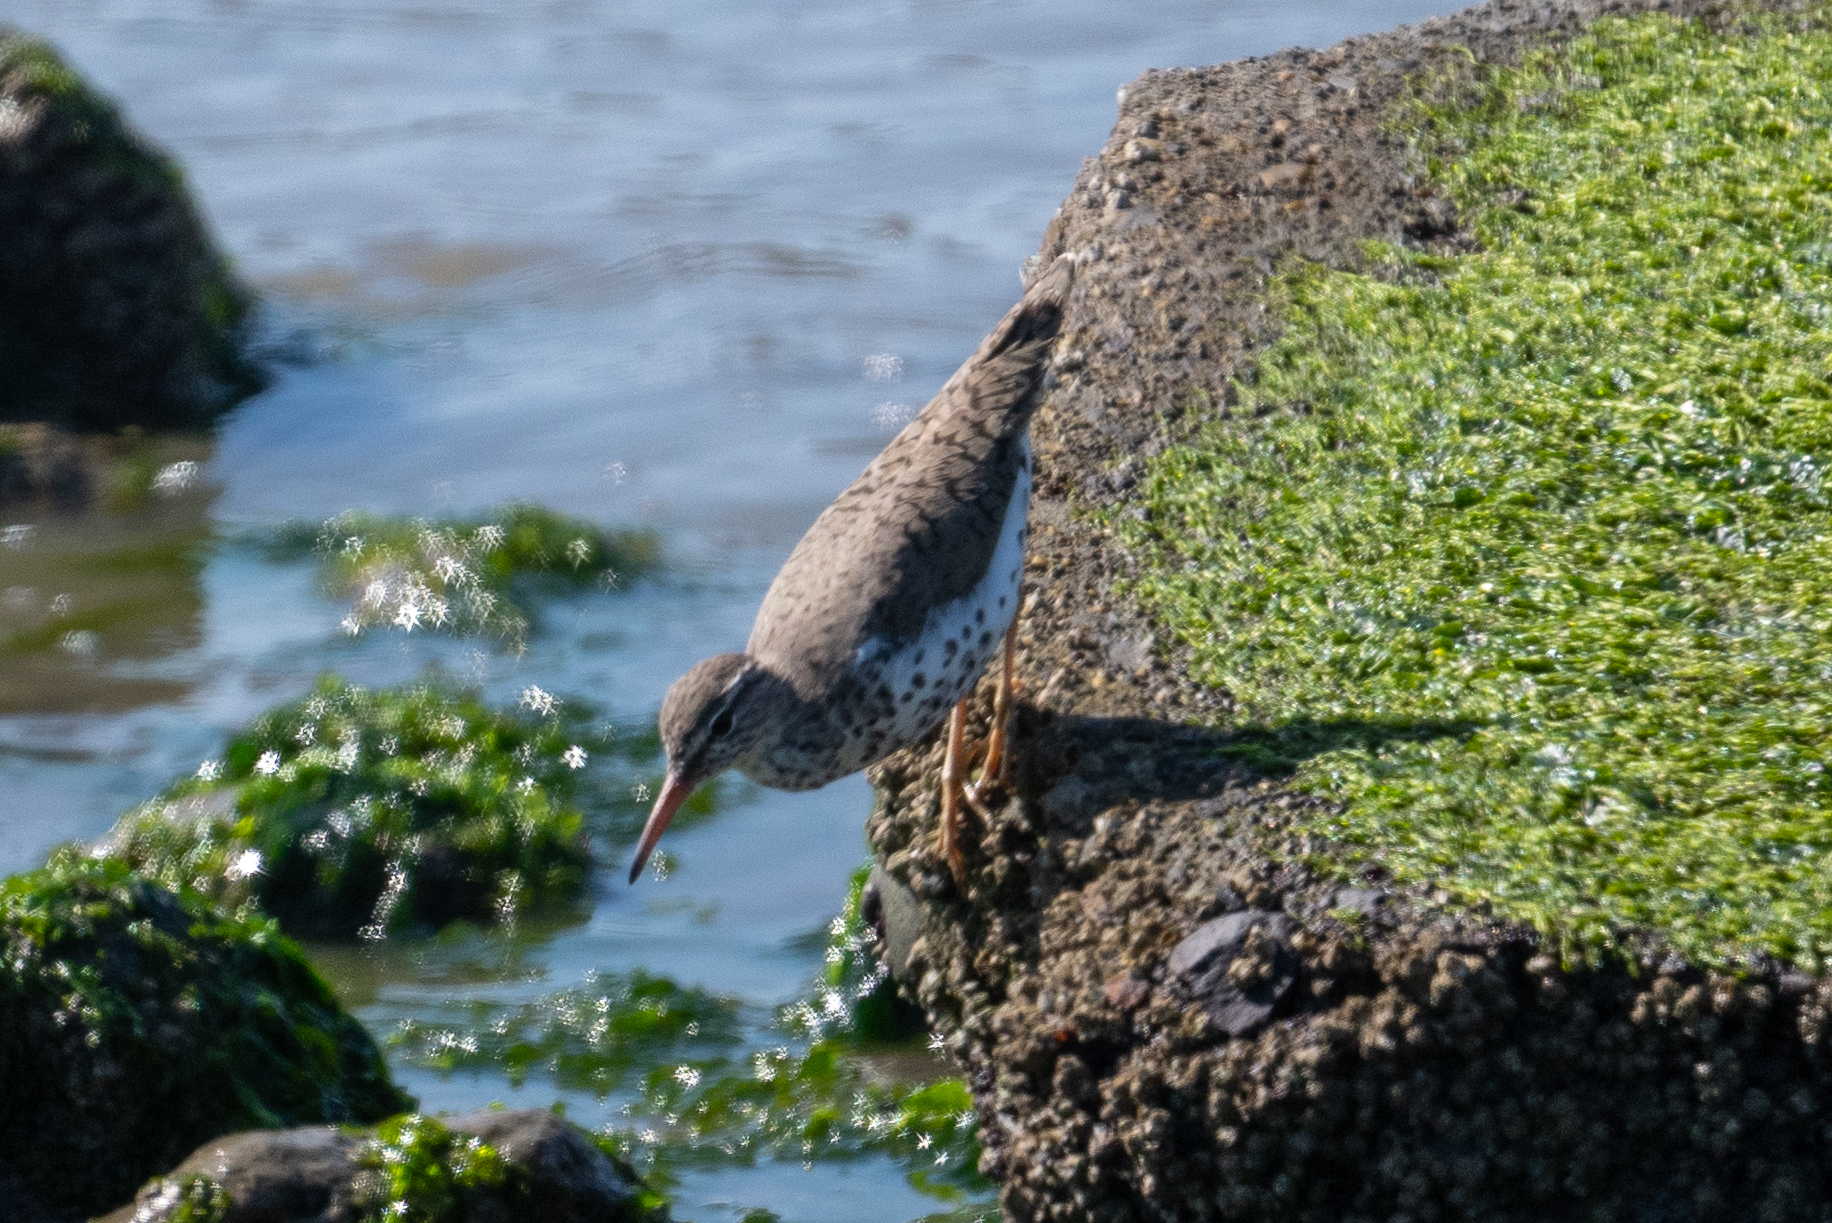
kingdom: Animalia
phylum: Chordata
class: Aves
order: Charadriiformes
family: Scolopacidae
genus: Actitis
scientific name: Actitis macularius
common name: Spotted sandpiper
